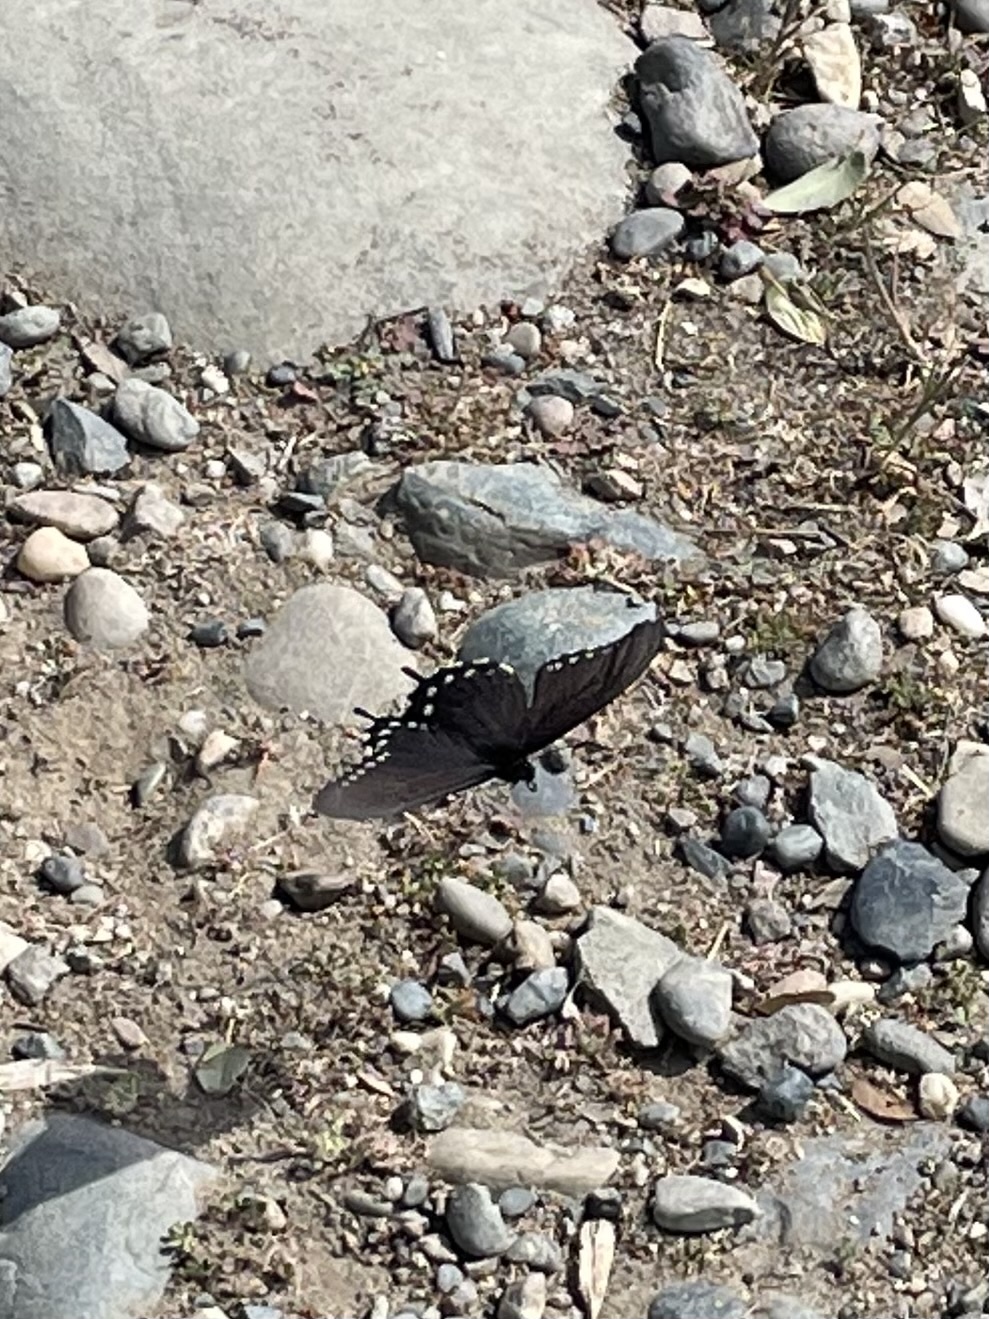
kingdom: Animalia
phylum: Arthropoda
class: Insecta
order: Lepidoptera
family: Papilionidae
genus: Battus
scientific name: Battus philenor
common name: Pipevine swallowtail
